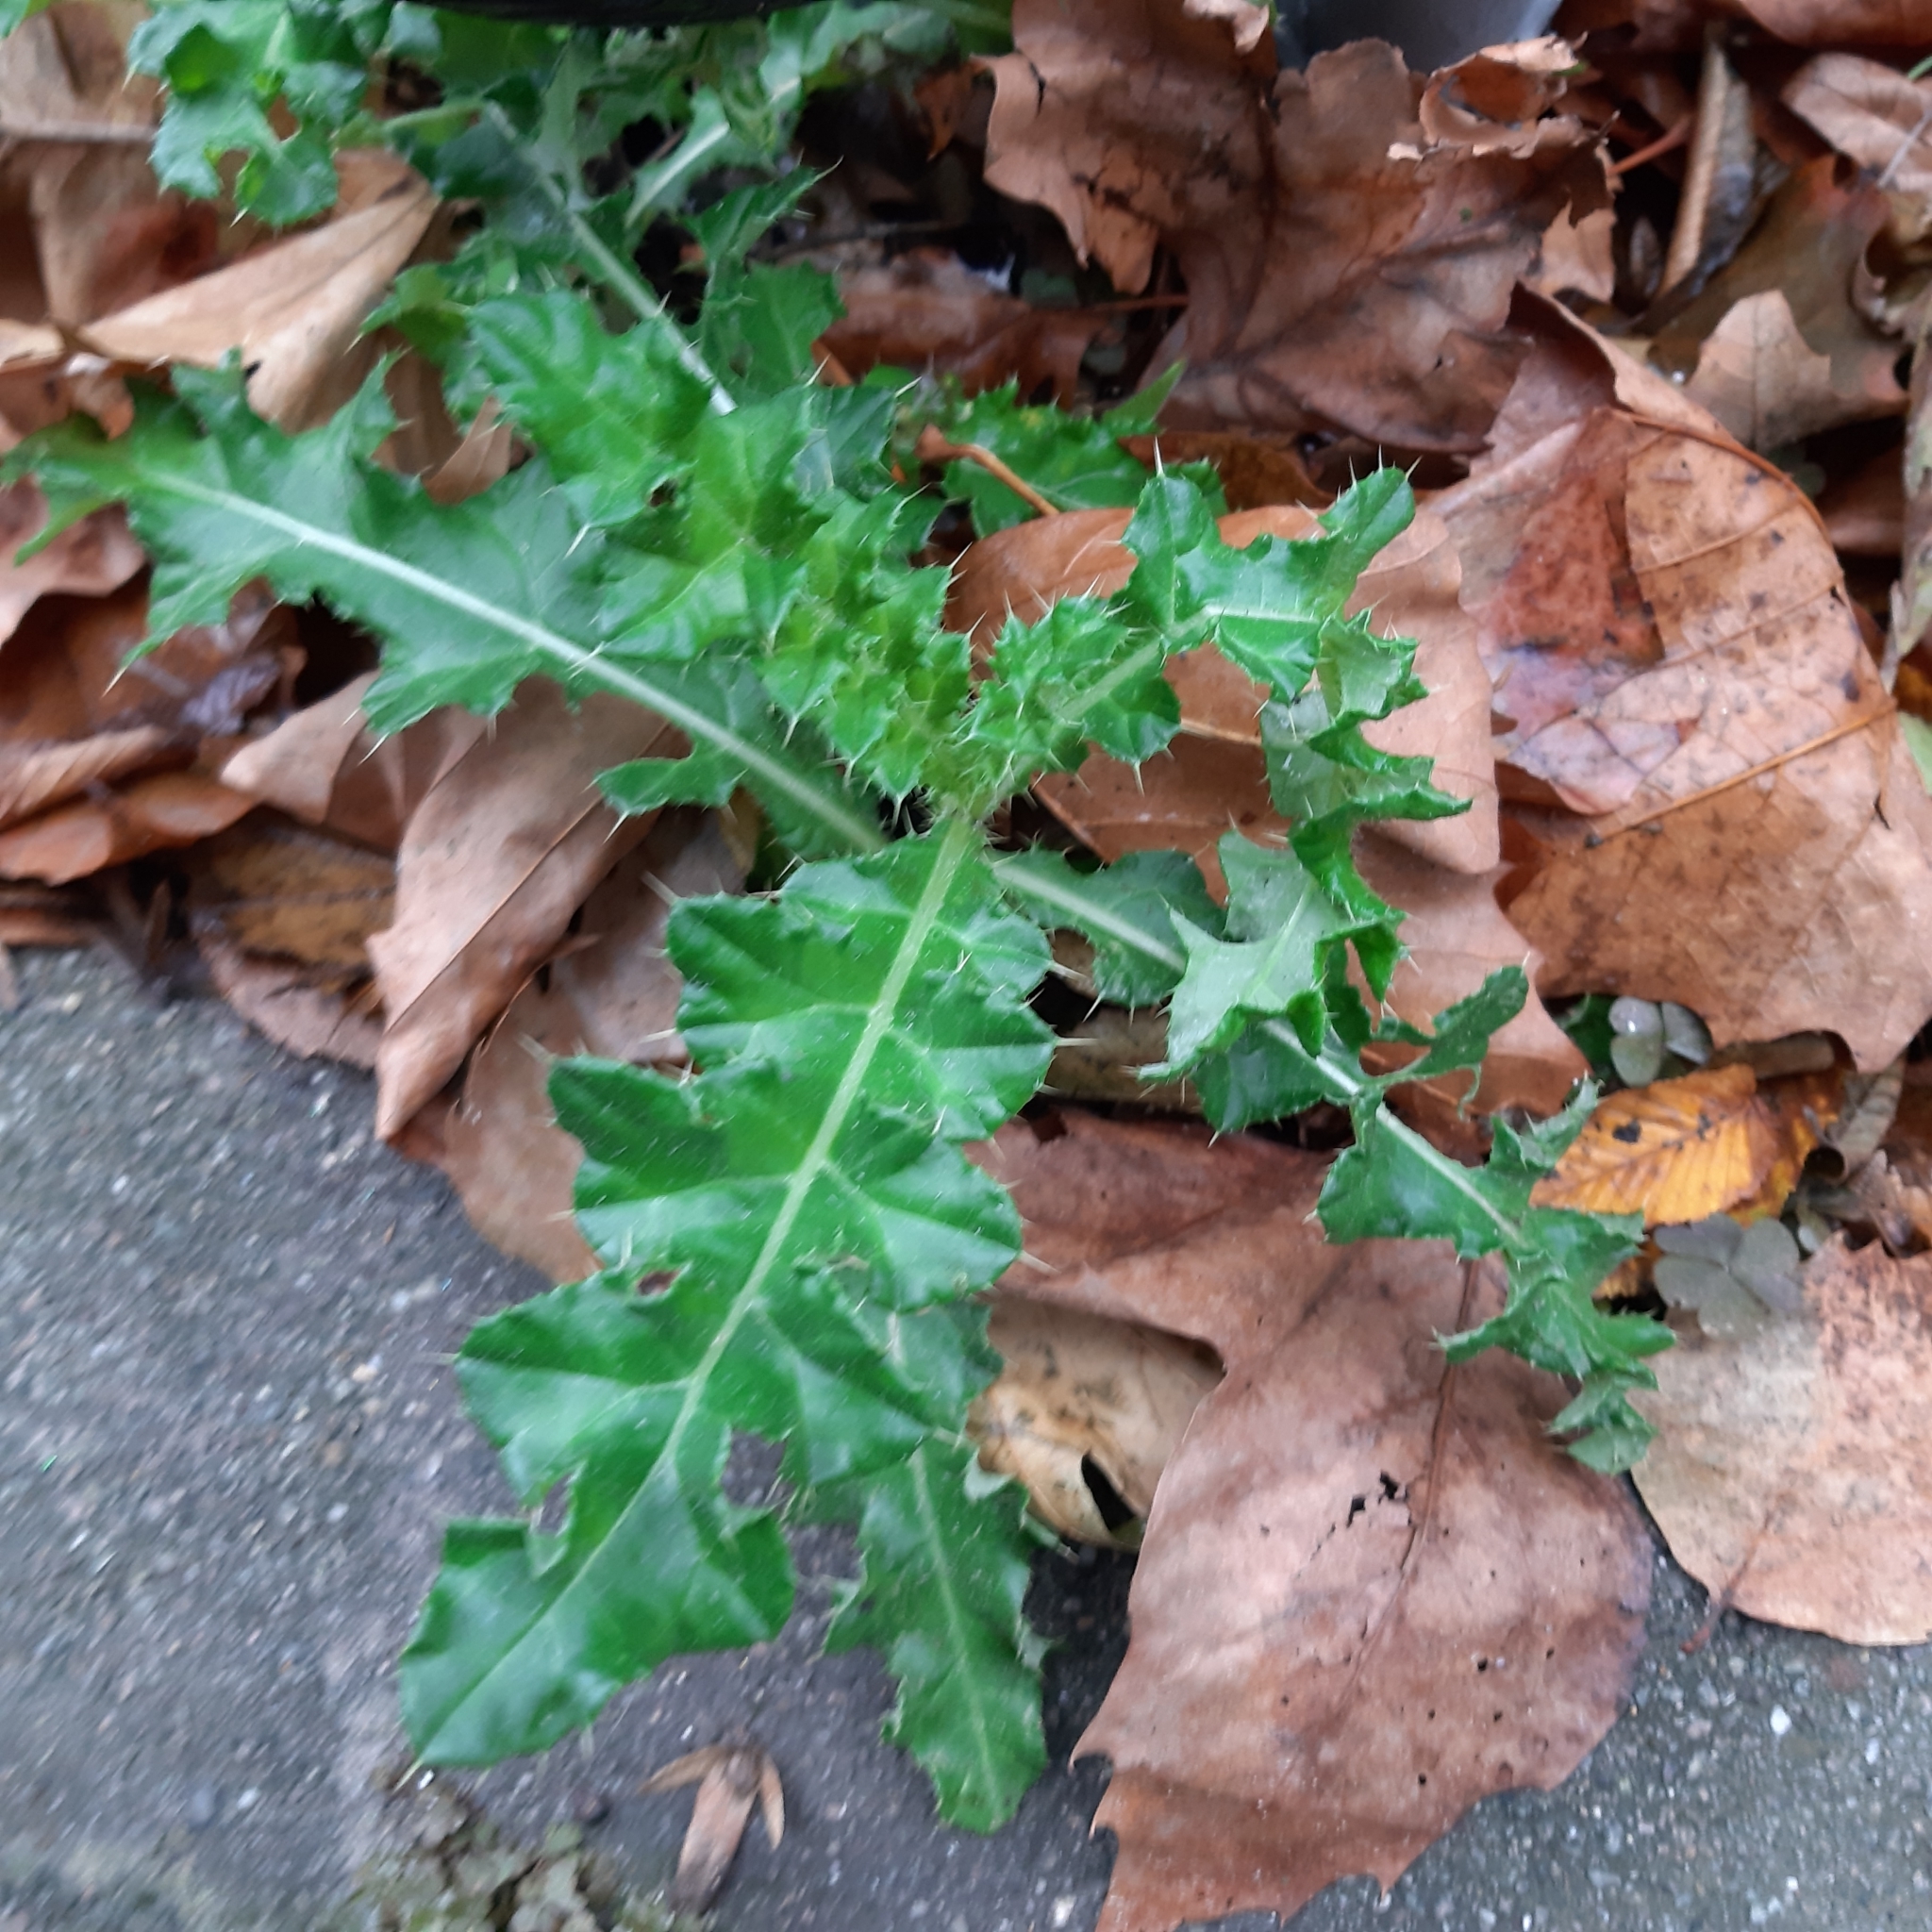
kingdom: Plantae
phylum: Tracheophyta
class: Magnoliopsida
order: Asterales
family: Asteraceae
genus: Cirsium
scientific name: Cirsium arvense
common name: Creeping thistle
